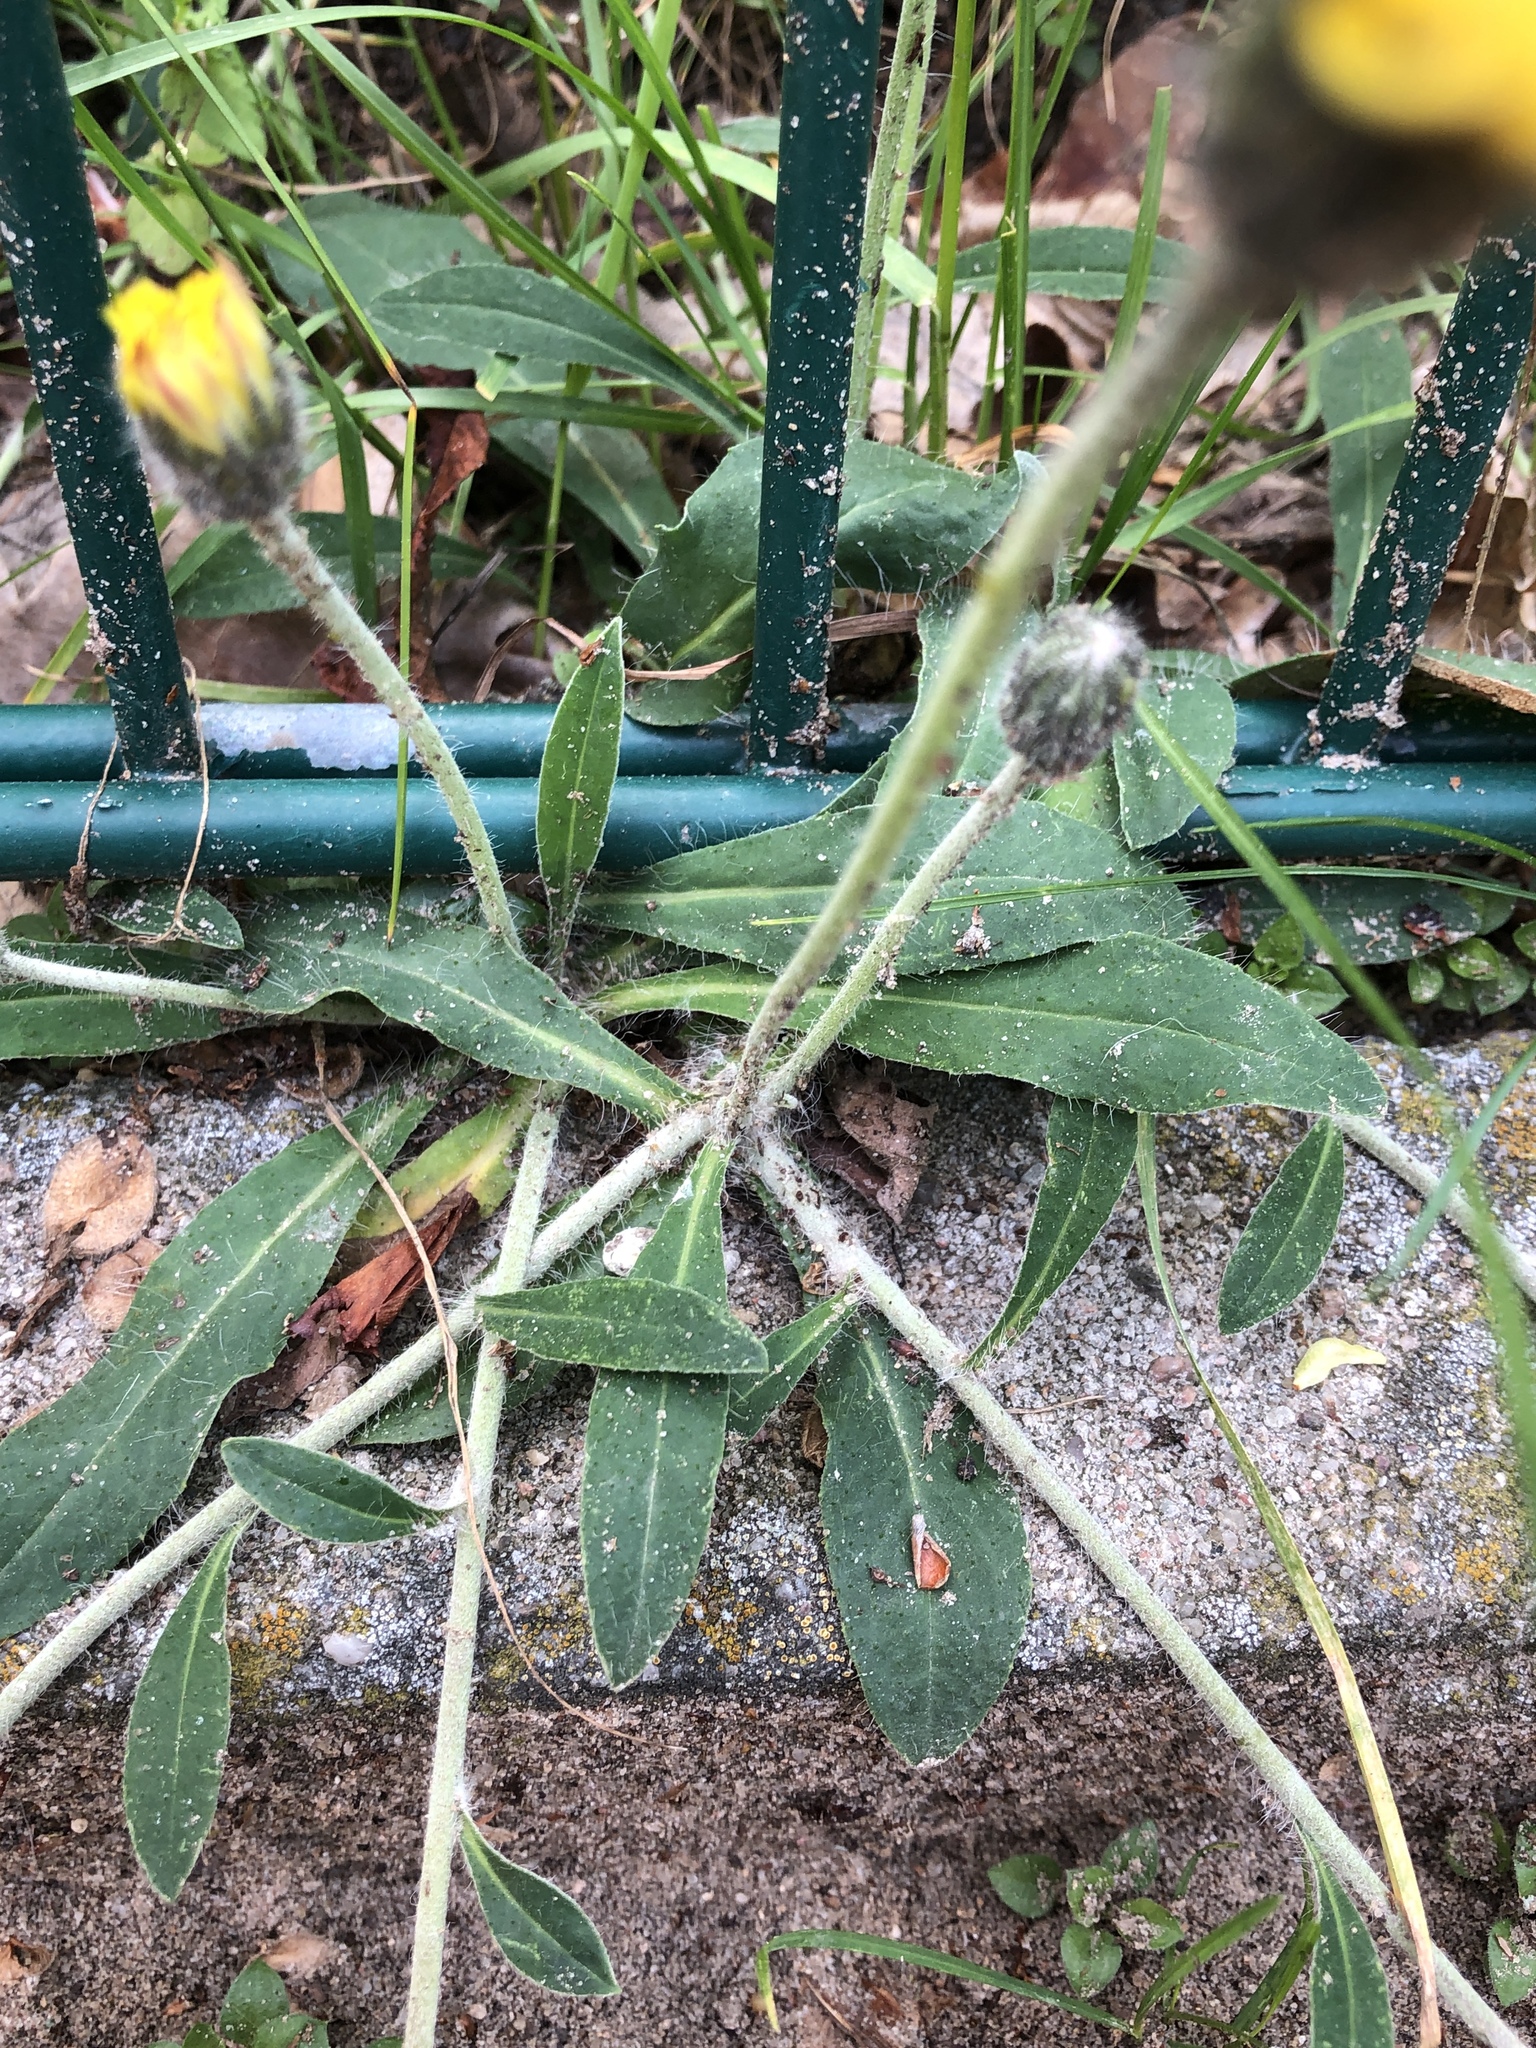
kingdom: Plantae
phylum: Tracheophyta
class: Magnoliopsida
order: Asterales
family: Asteraceae
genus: Pilosella
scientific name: Pilosella officinarum
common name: Mouse-ear hawkweed
